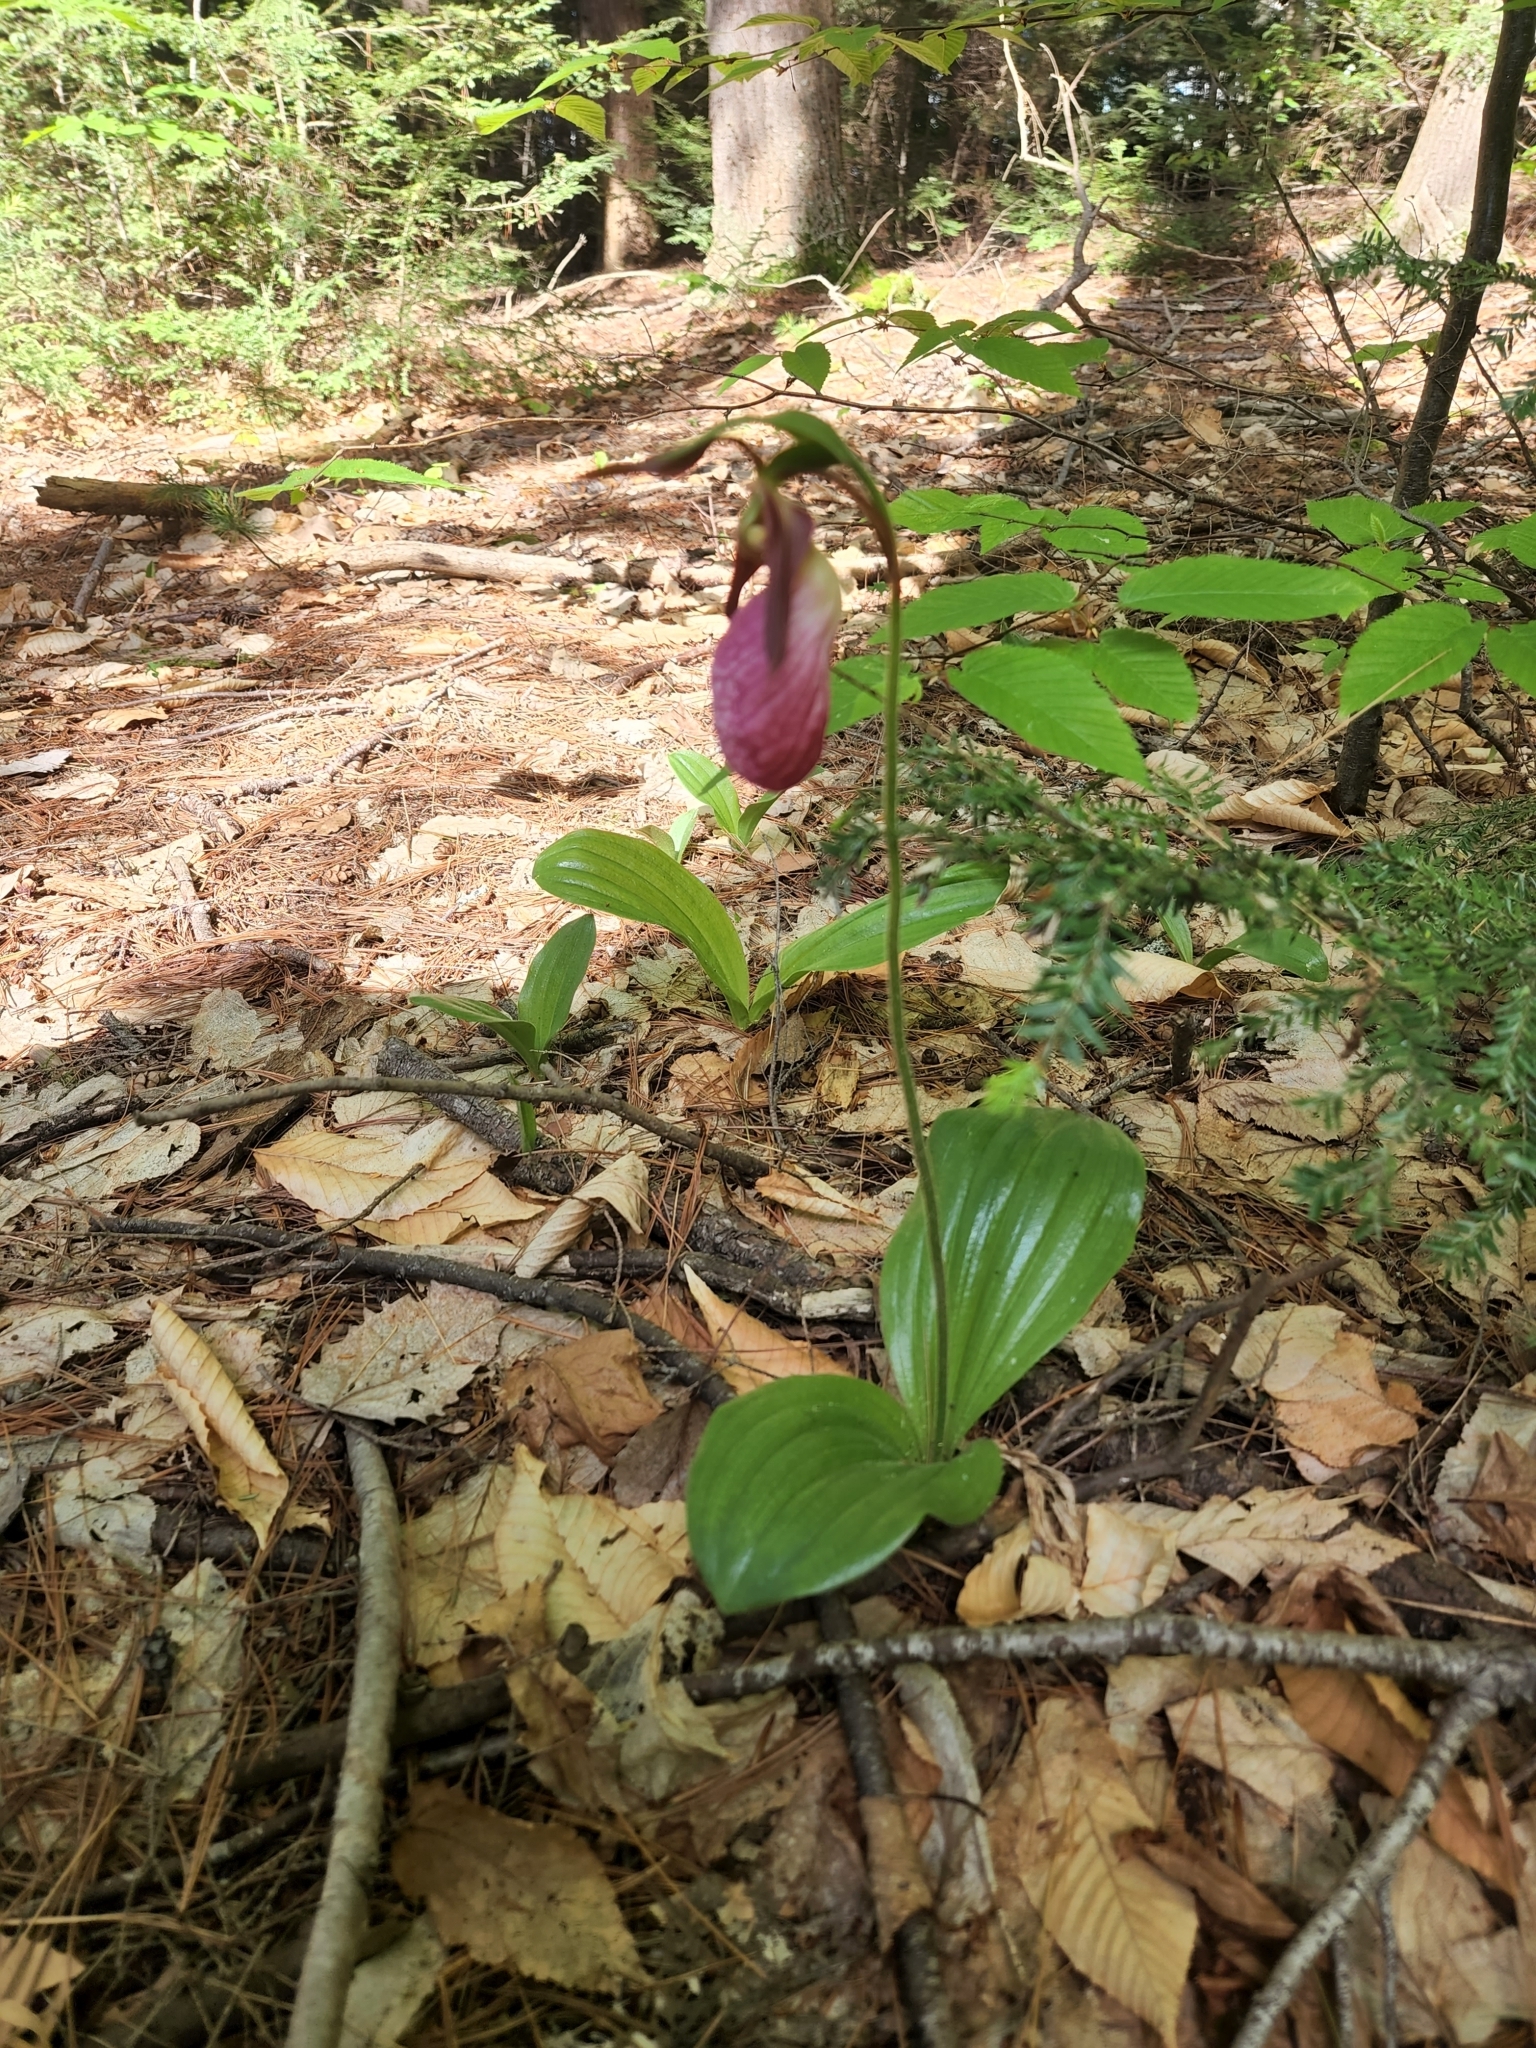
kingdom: Plantae
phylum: Tracheophyta
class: Liliopsida
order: Asparagales
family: Orchidaceae
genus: Cypripedium
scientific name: Cypripedium acaule
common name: Pink lady's-slipper
